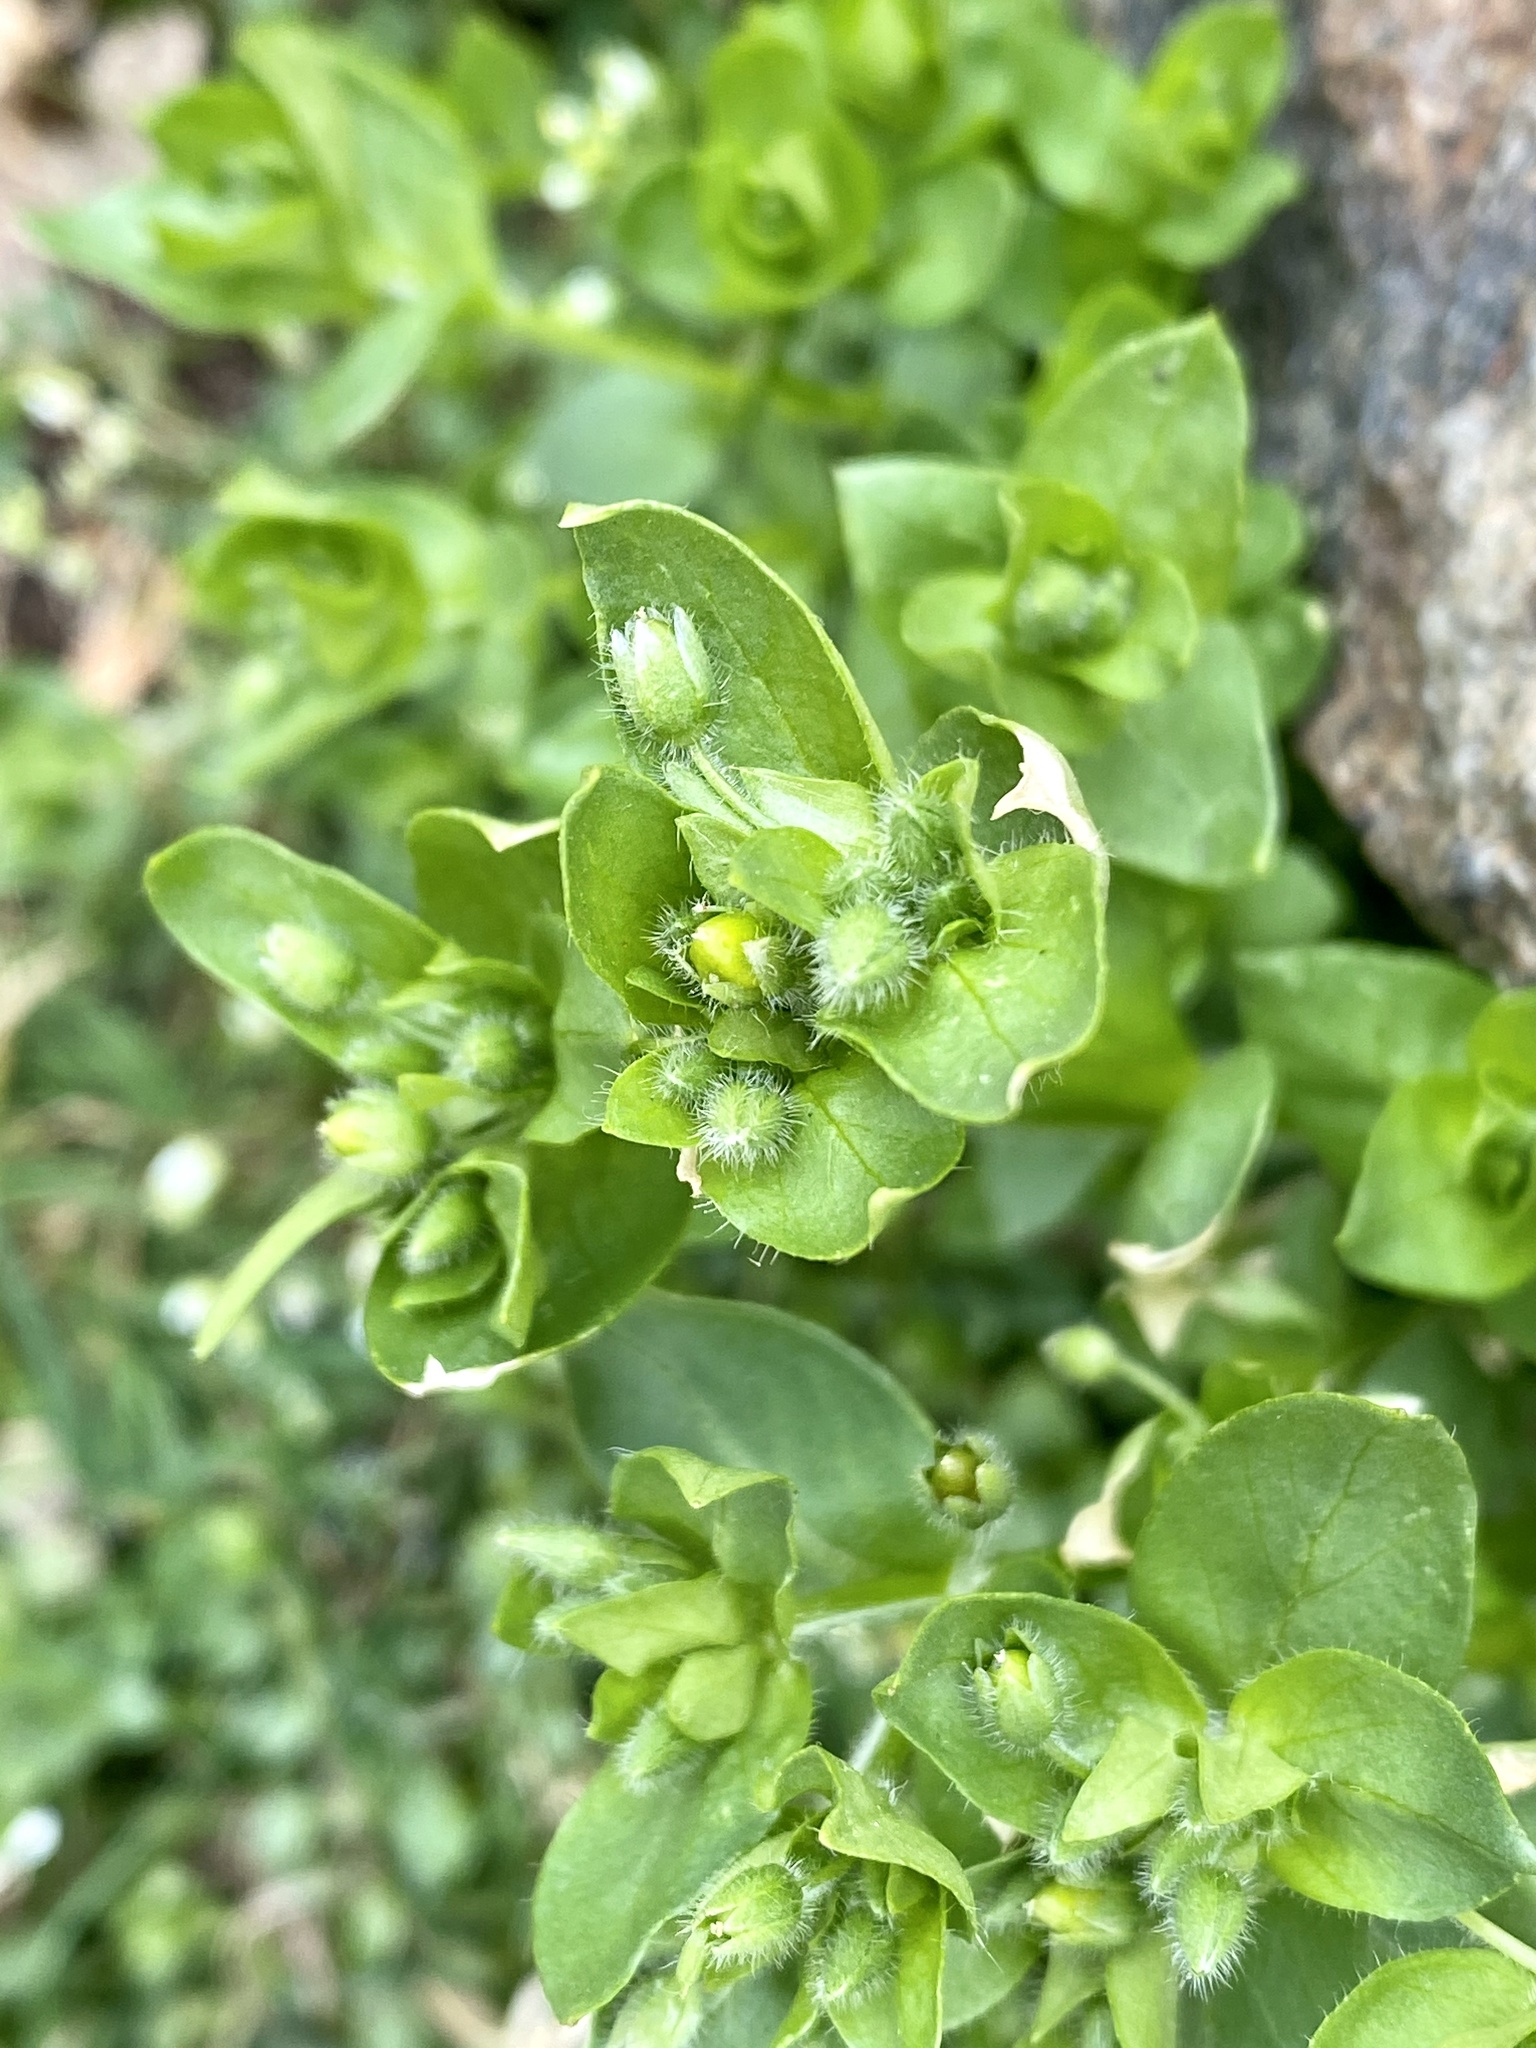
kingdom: Plantae
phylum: Tracheophyta
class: Magnoliopsida
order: Caryophyllales
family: Caryophyllaceae
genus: Stellaria
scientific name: Stellaria media
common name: Common chickweed
